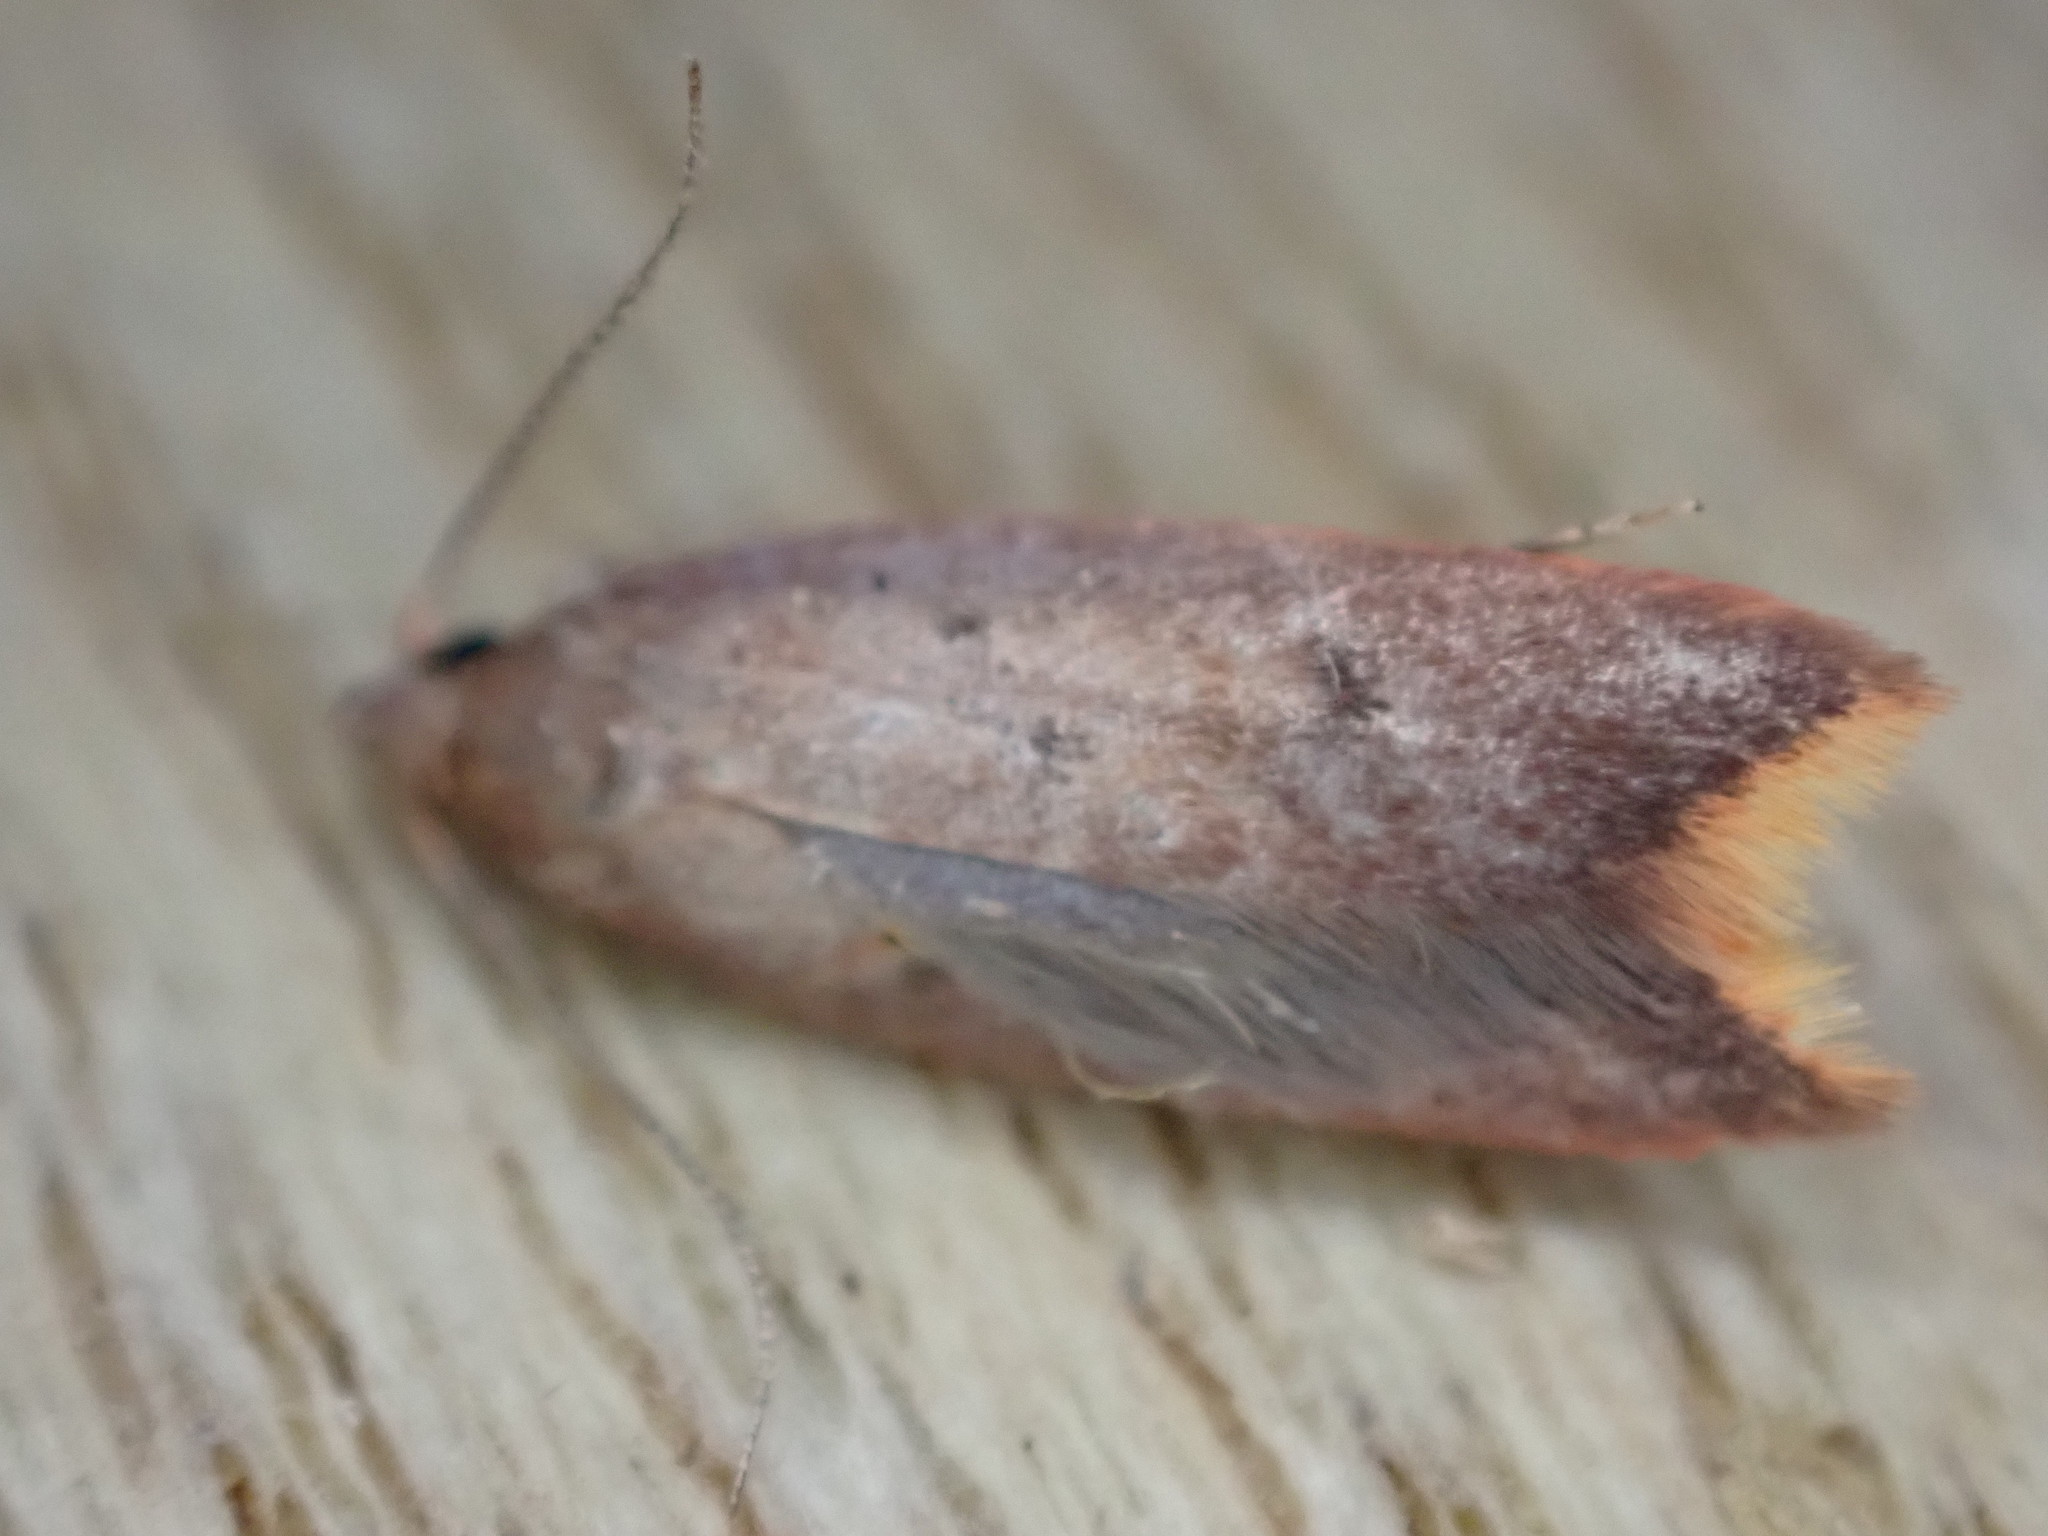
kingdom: Animalia
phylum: Arthropoda
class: Insecta
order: Lepidoptera
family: Oecophoridae
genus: Tachystola
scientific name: Tachystola acroxantha
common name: Ruddy streak
